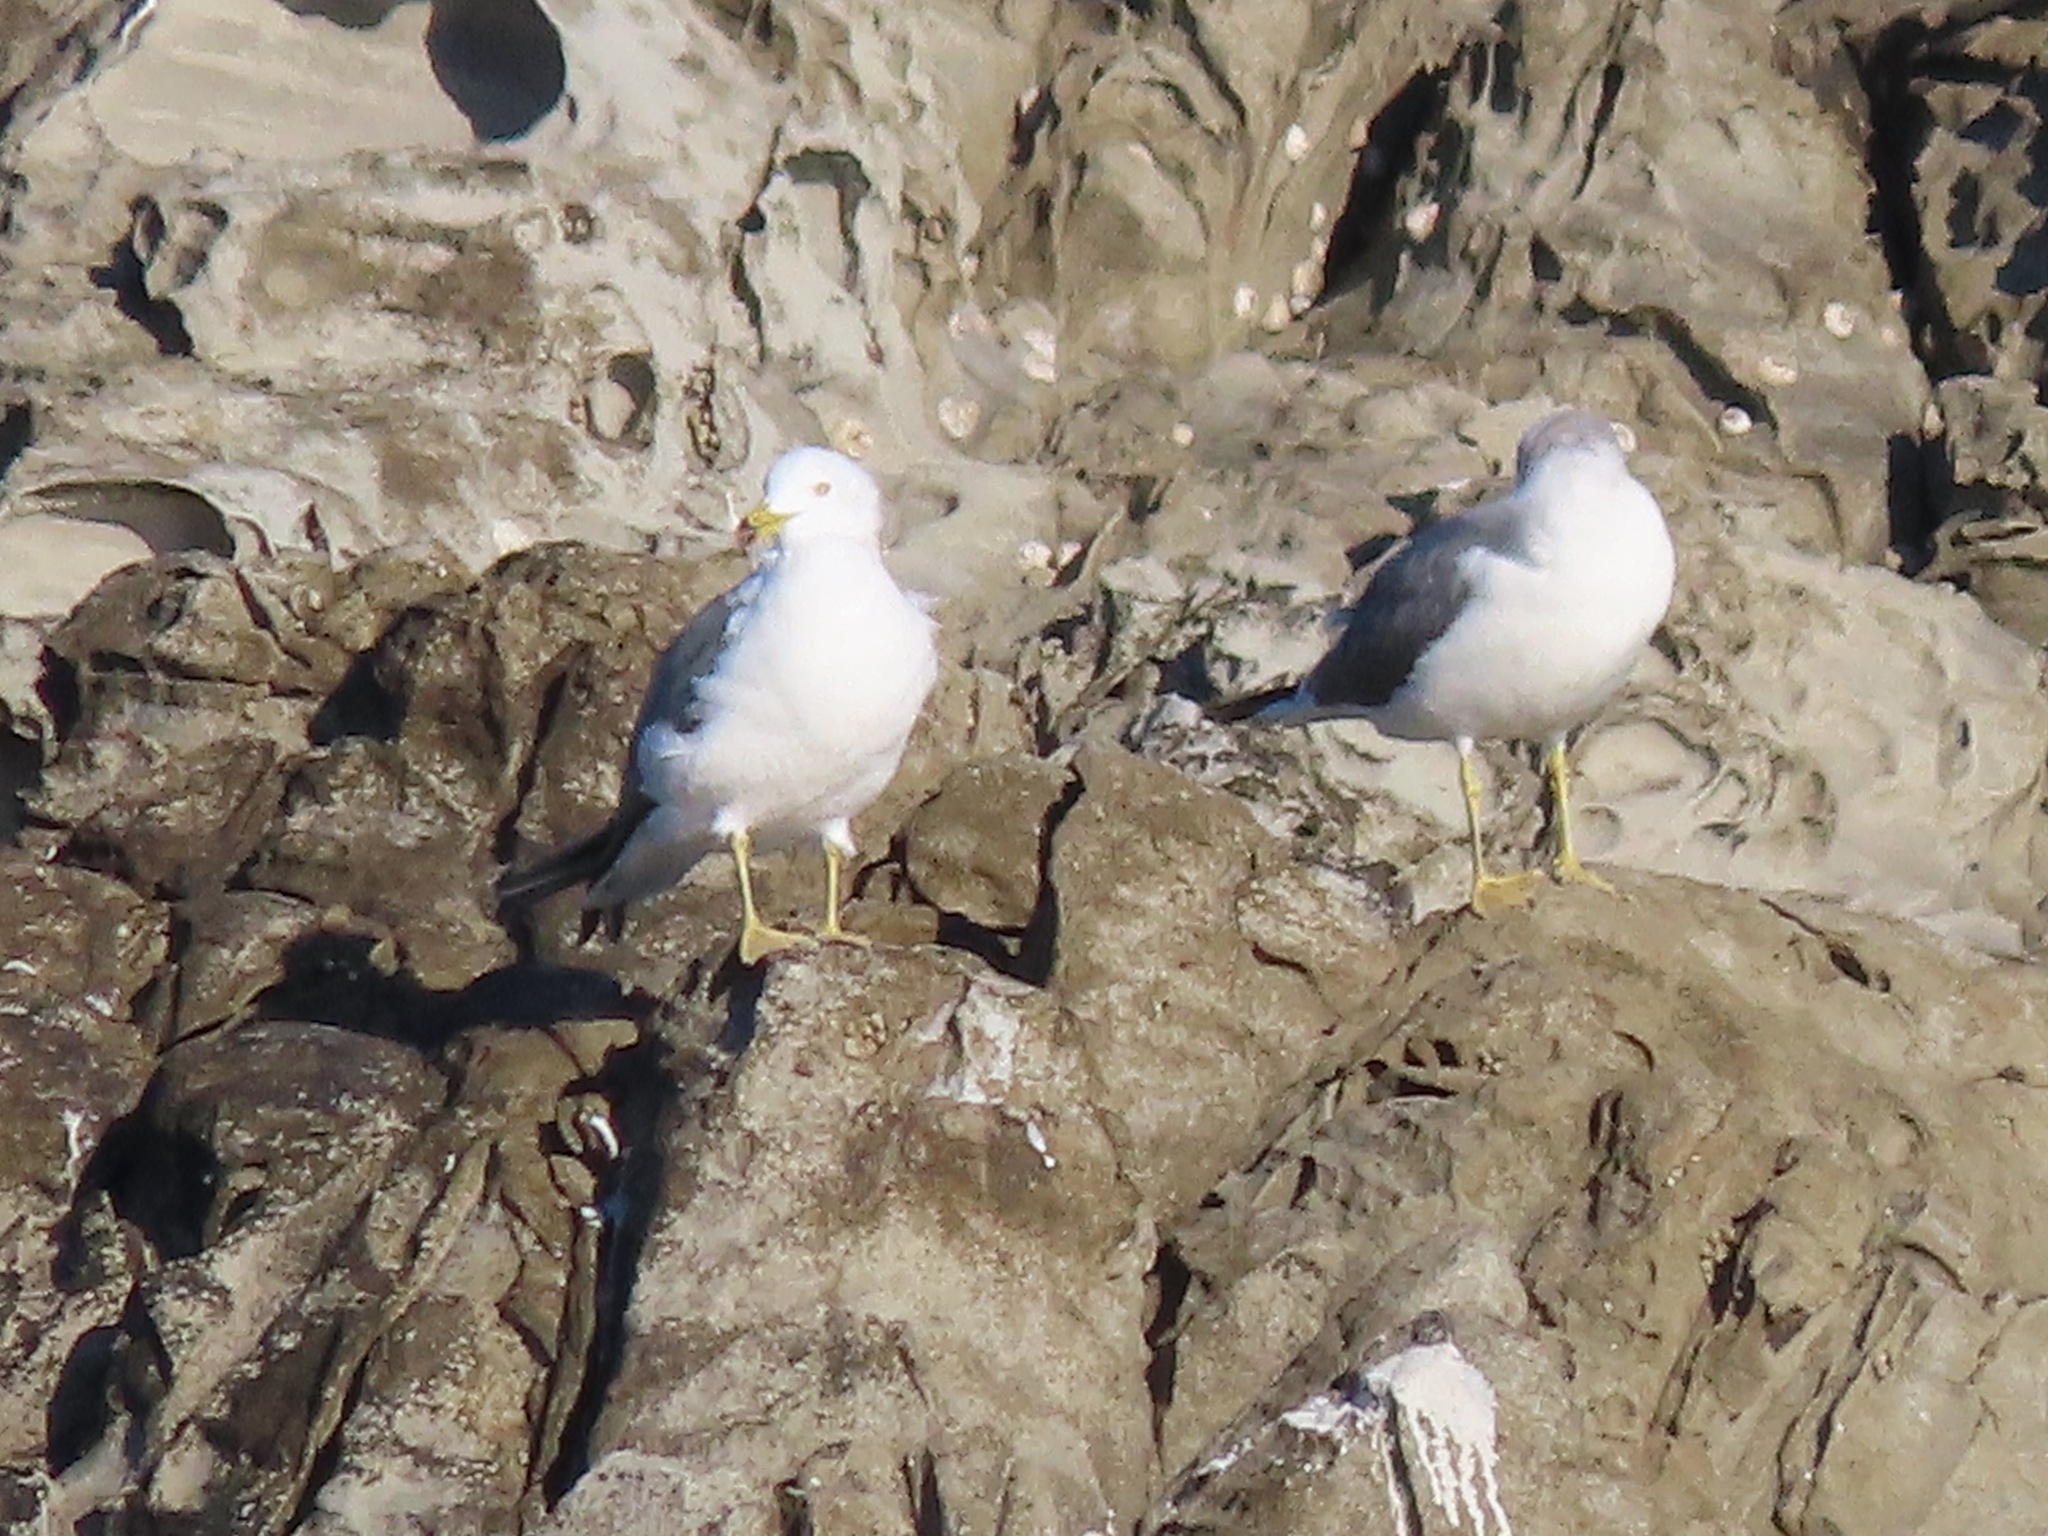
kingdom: Animalia
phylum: Chordata
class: Aves
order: Charadriiformes
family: Laridae
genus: Larus
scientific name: Larus crassirostris
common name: Black-tailed gull
